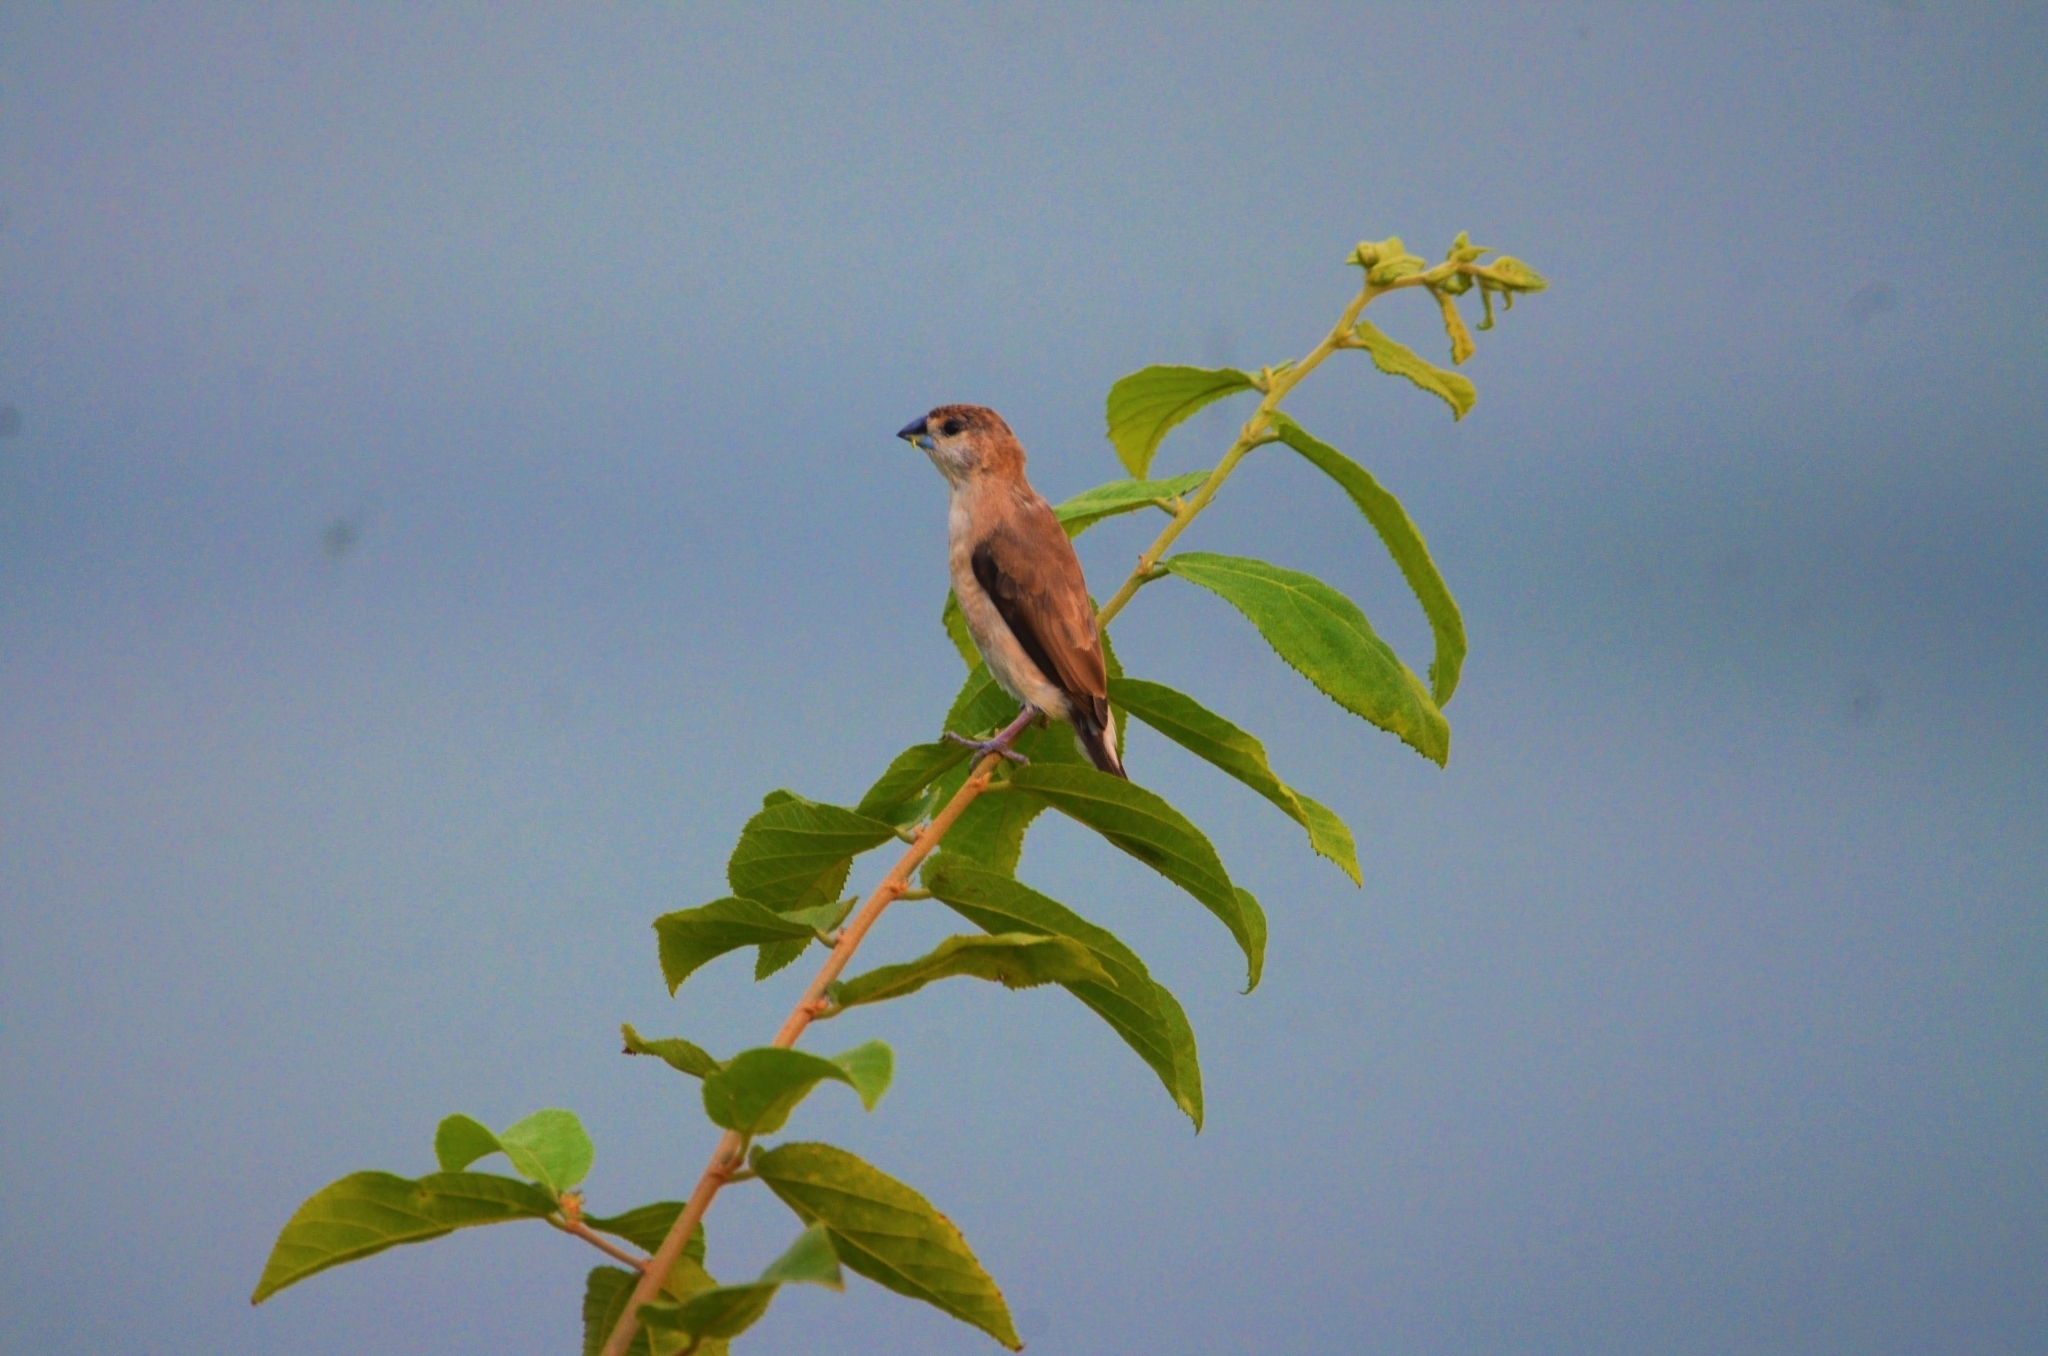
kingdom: Animalia
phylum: Chordata
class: Aves
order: Passeriformes
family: Estrildidae
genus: Euodice
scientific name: Euodice malabarica
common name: Indian silverbill
